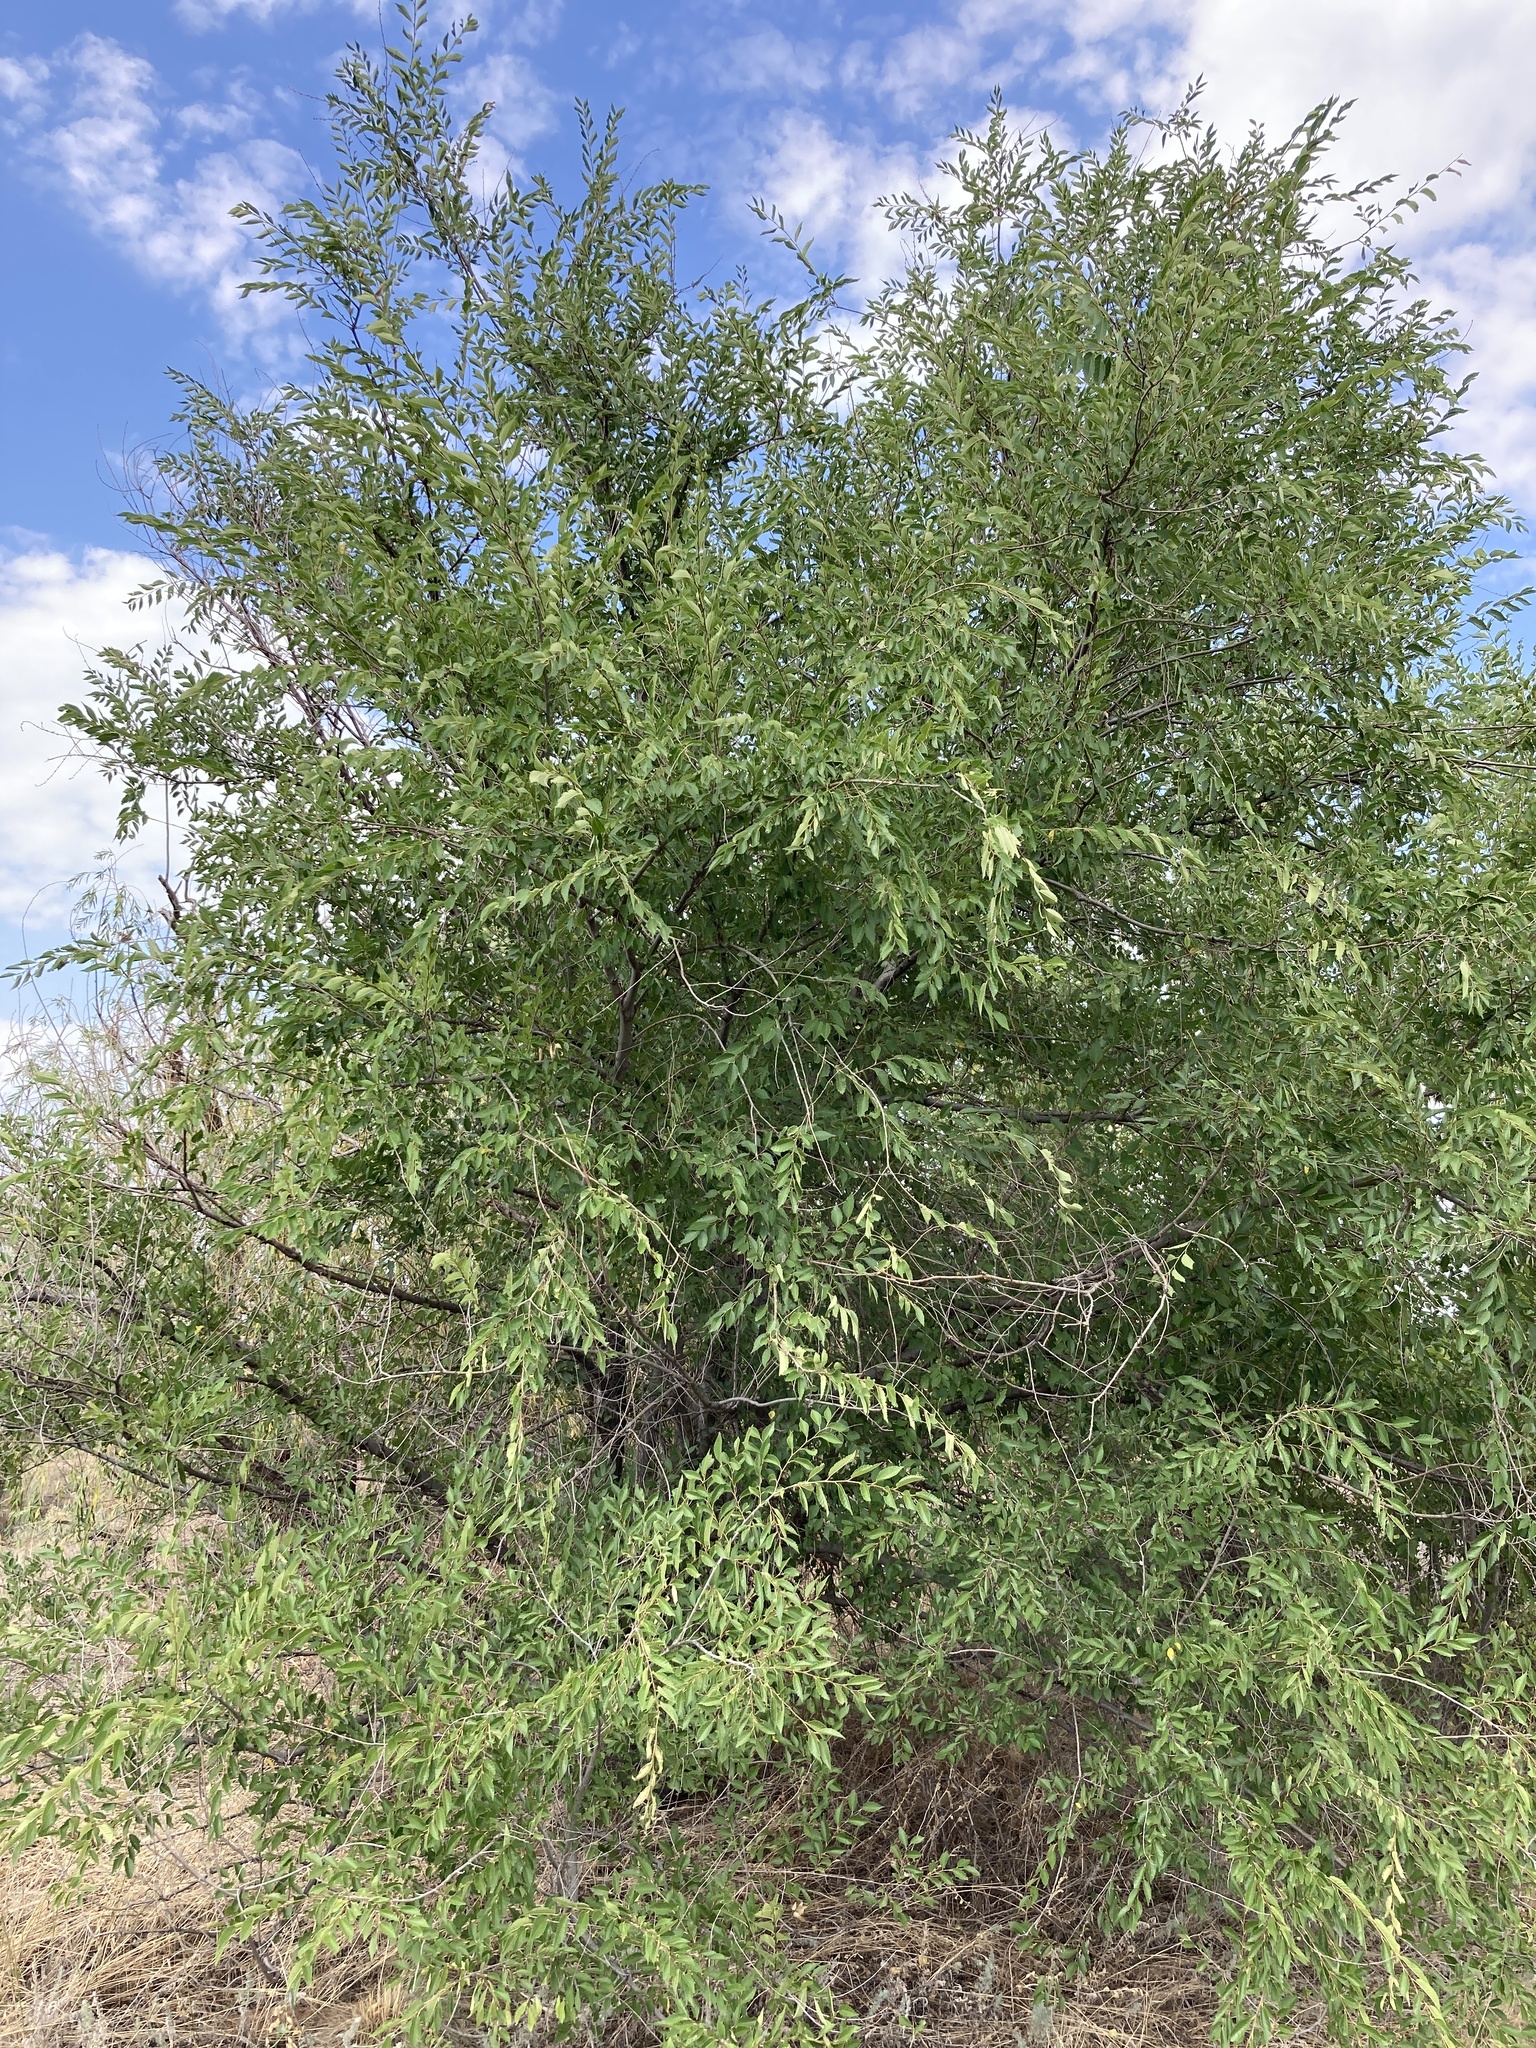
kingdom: Plantae
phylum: Tracheophyta
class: Magnoliopsida
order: Rosales
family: Ulmaceae
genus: Ulmus
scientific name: Ulmus pumila
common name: Siberian elm
